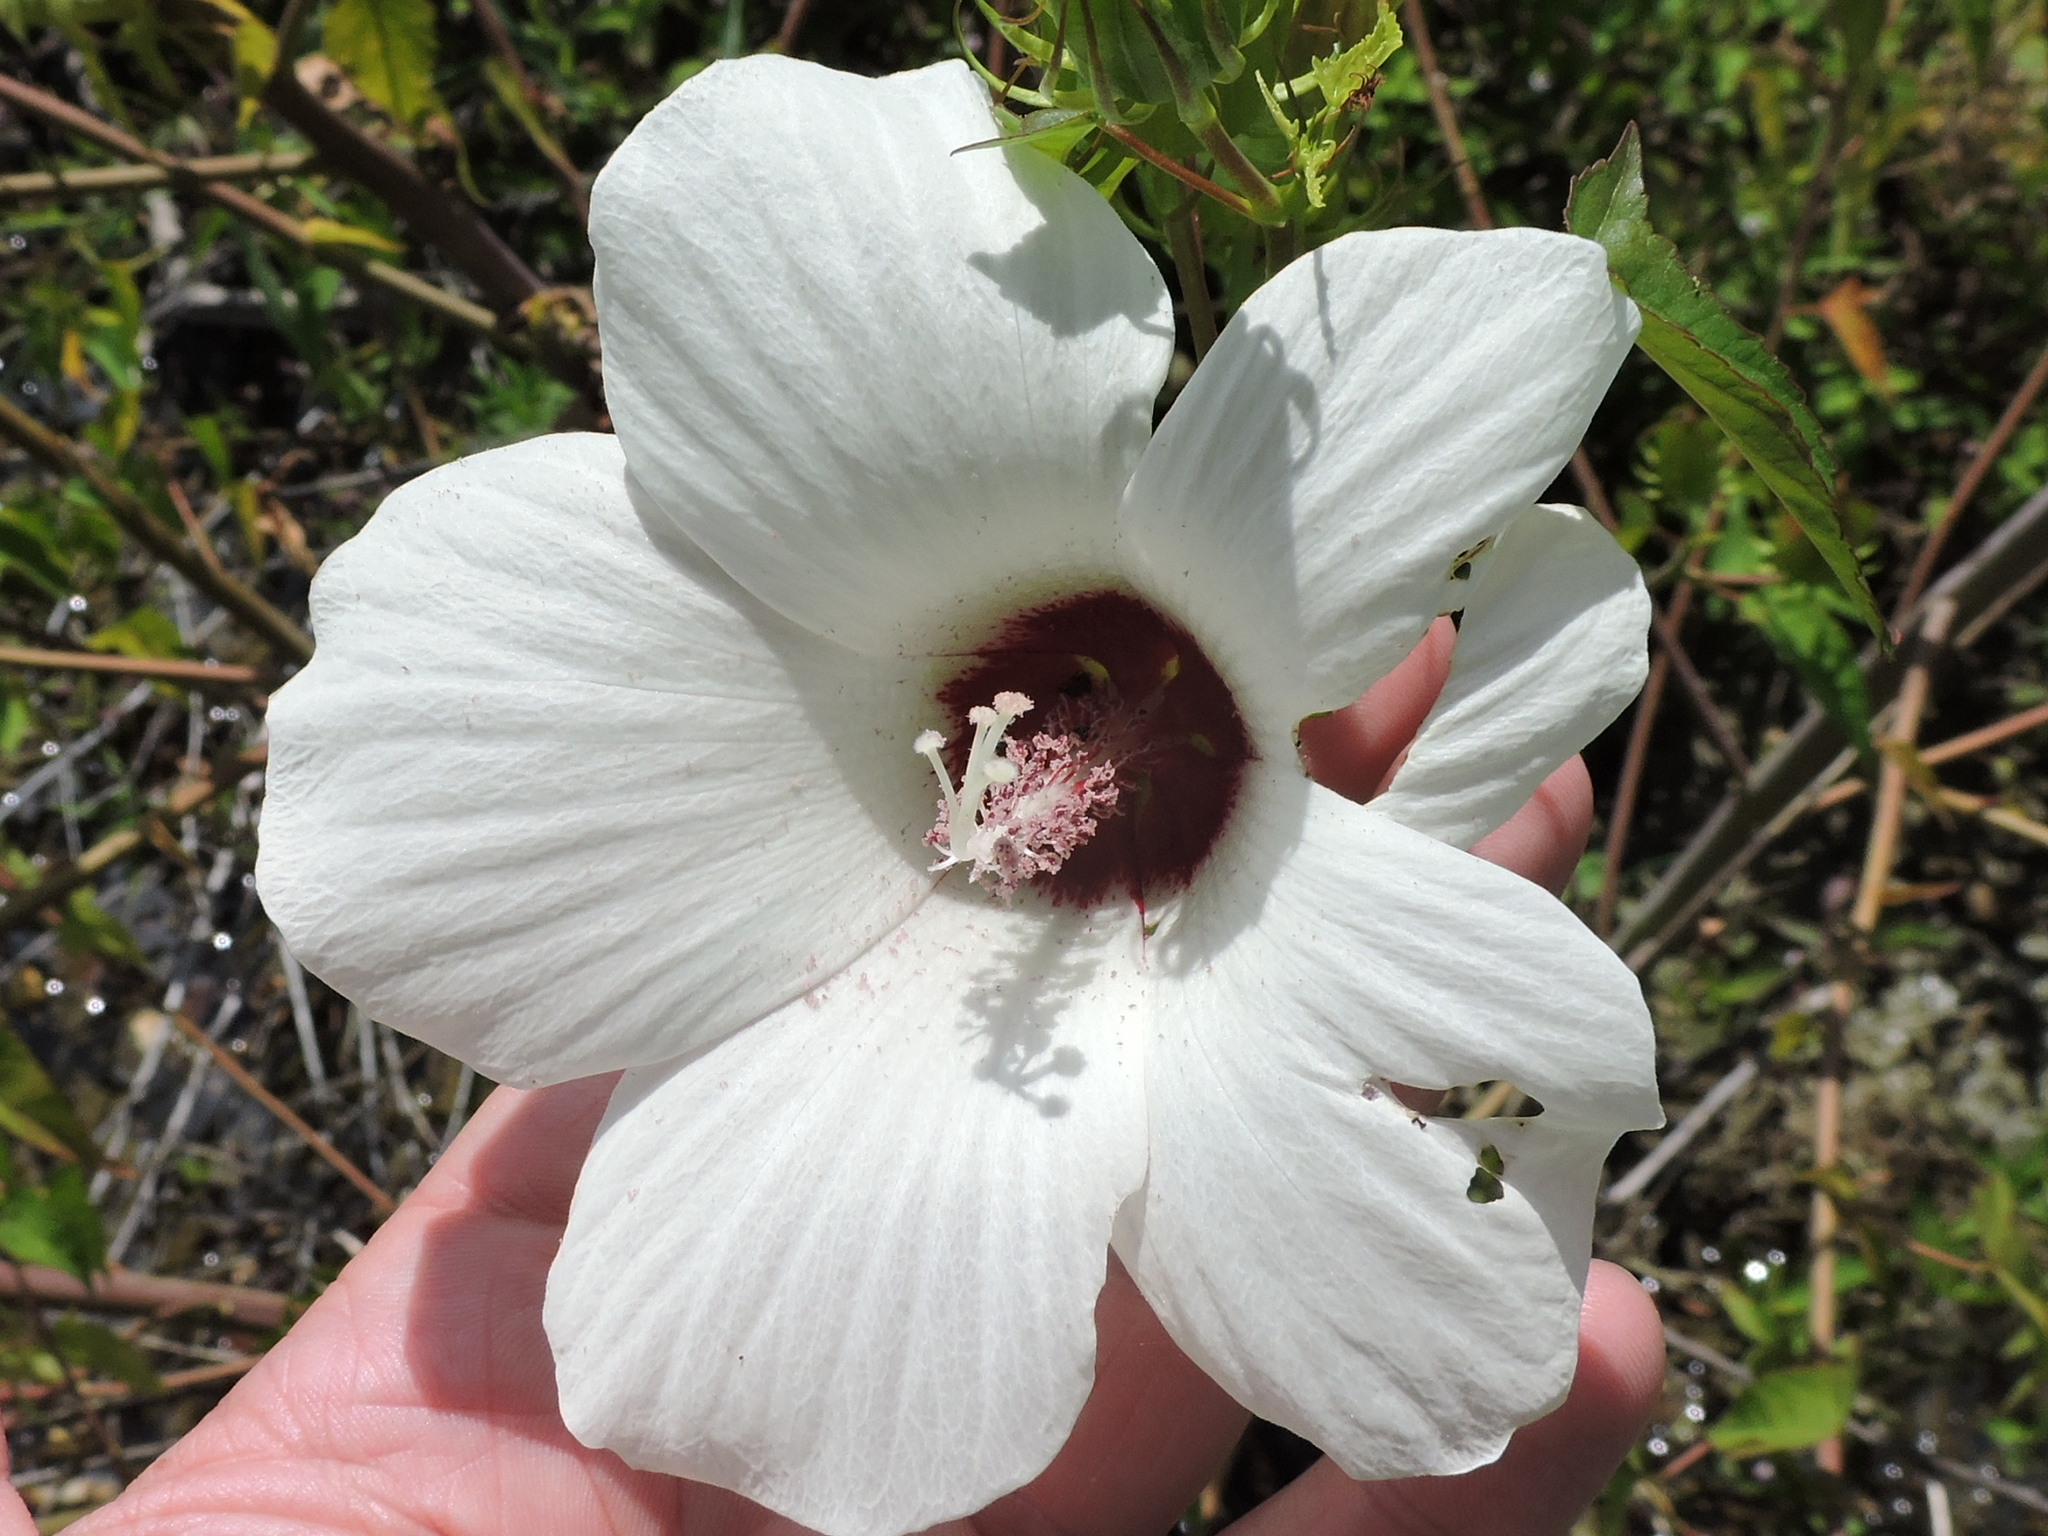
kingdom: Plantae
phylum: Tracheophyta
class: Magnoliopsida
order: Malvales
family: Malvaceae
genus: Hibiscus
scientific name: Hibiscus laevis
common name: Scarlet rose-mallow
